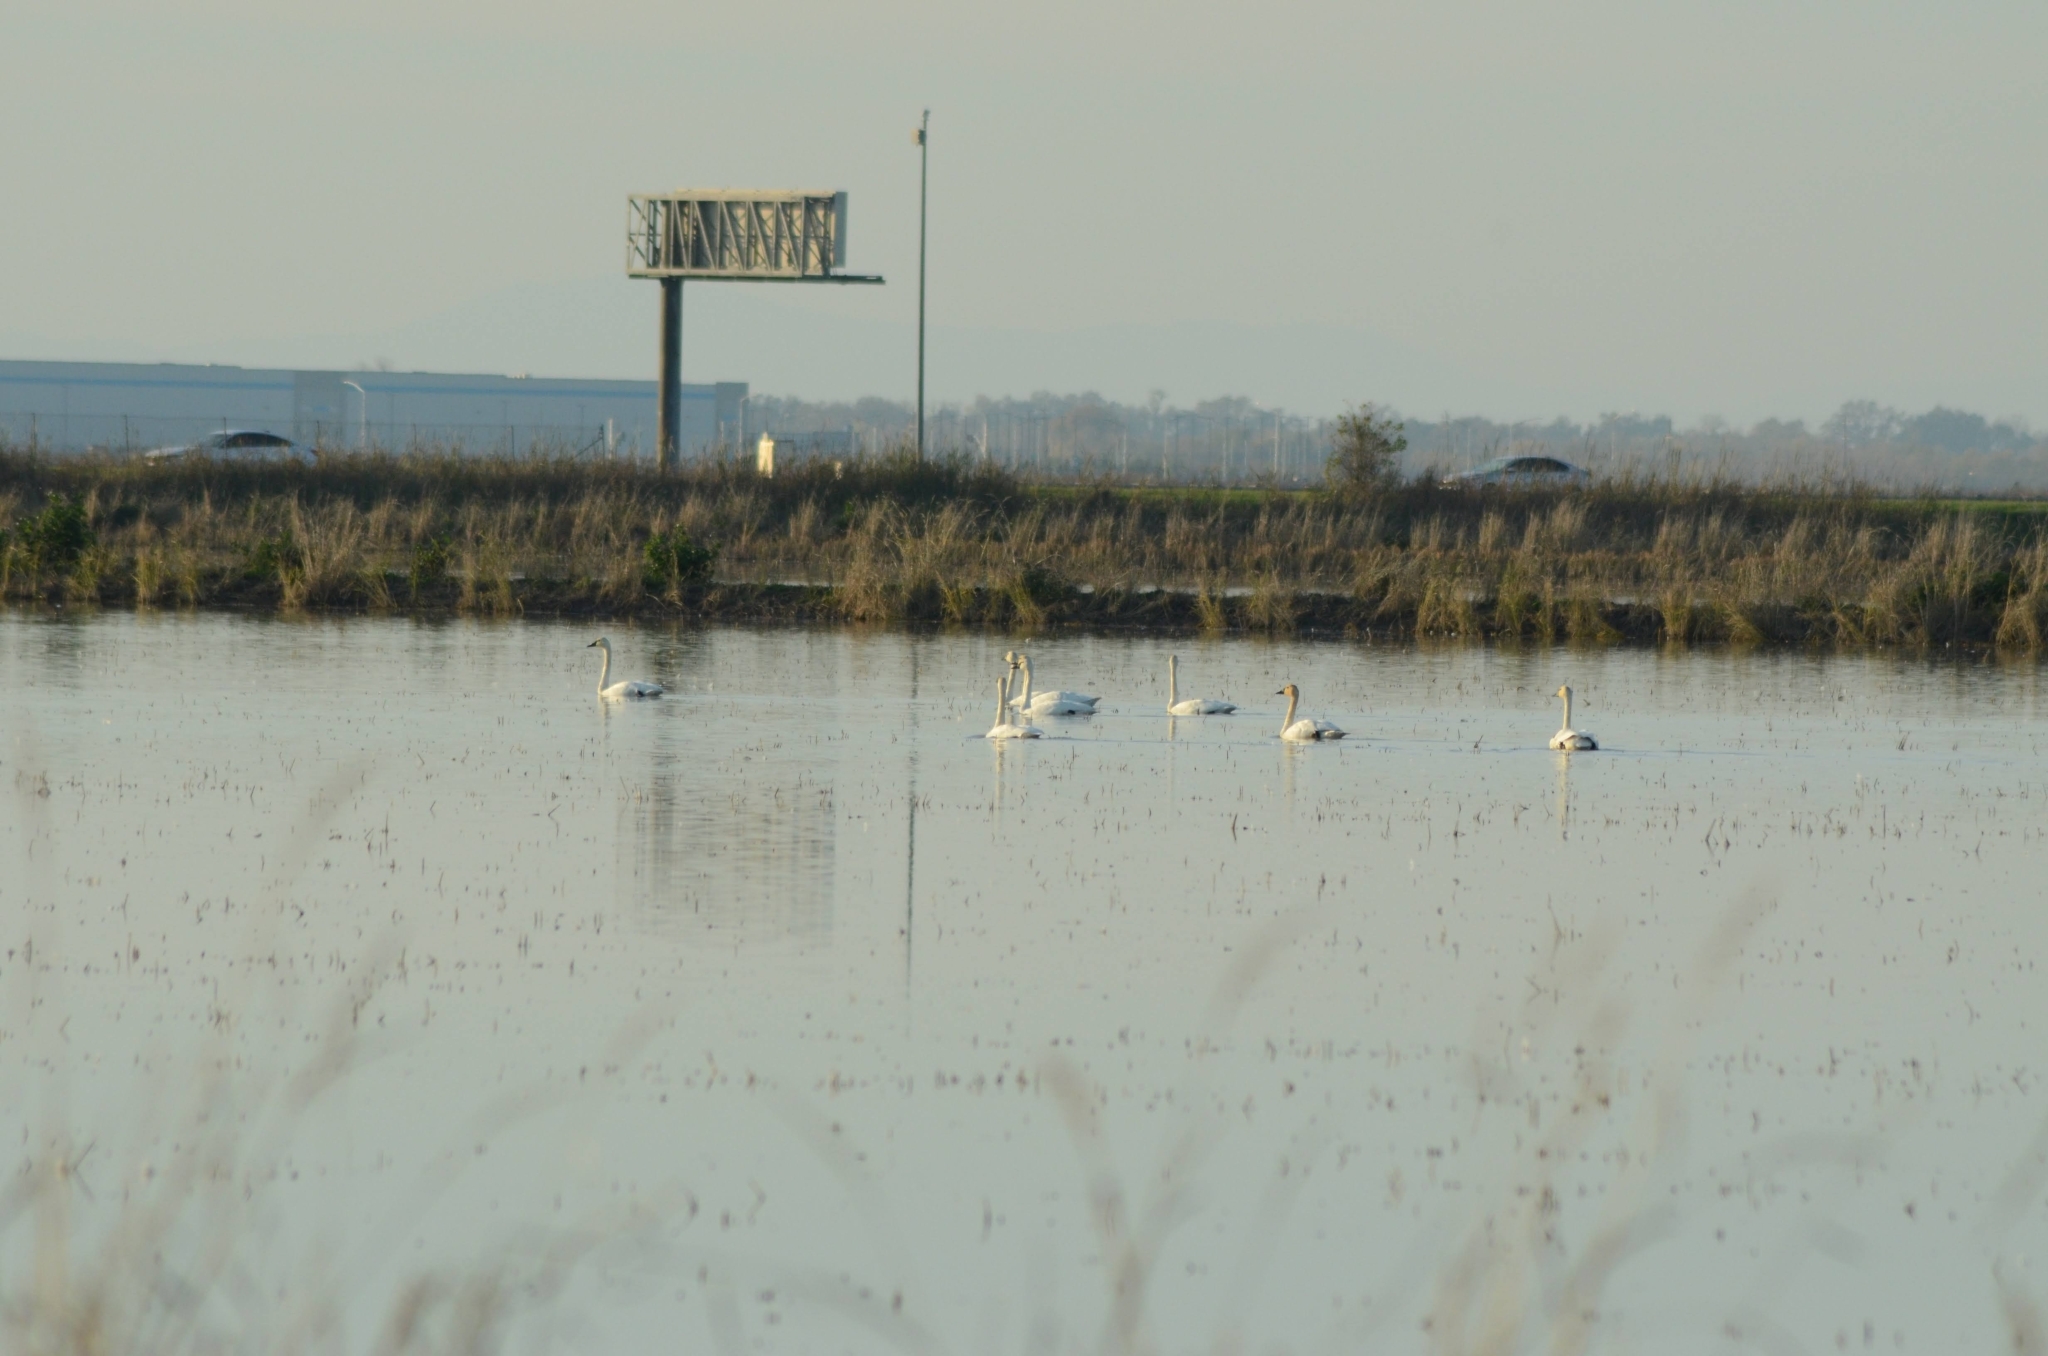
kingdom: Animalia
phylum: Chordata
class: Aves
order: Anseriformes
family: Anatidae
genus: Cygnus
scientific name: Cygnus columbianus
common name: Tundra swan
